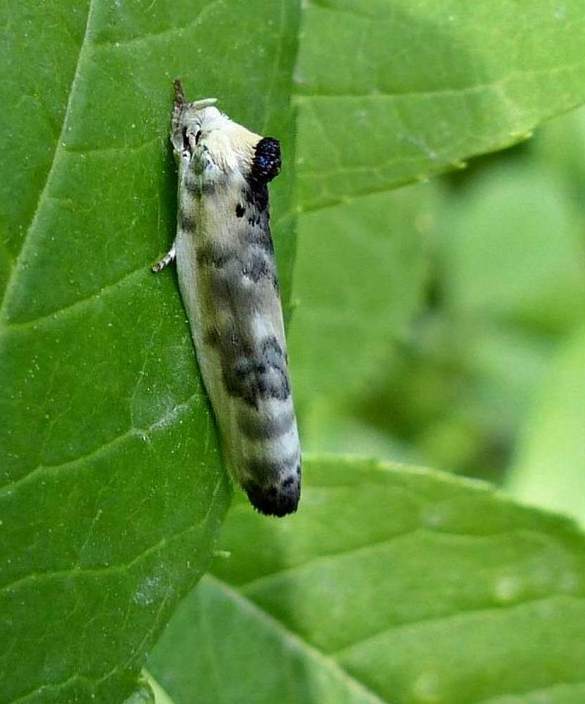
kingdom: Animalia
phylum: Arthropoda
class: Insecta
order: Lepidoptera
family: Depressariidae
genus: Antaeotricha
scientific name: Antaeotricha schlaegeri
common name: Schlaeger's fruitworm moth
